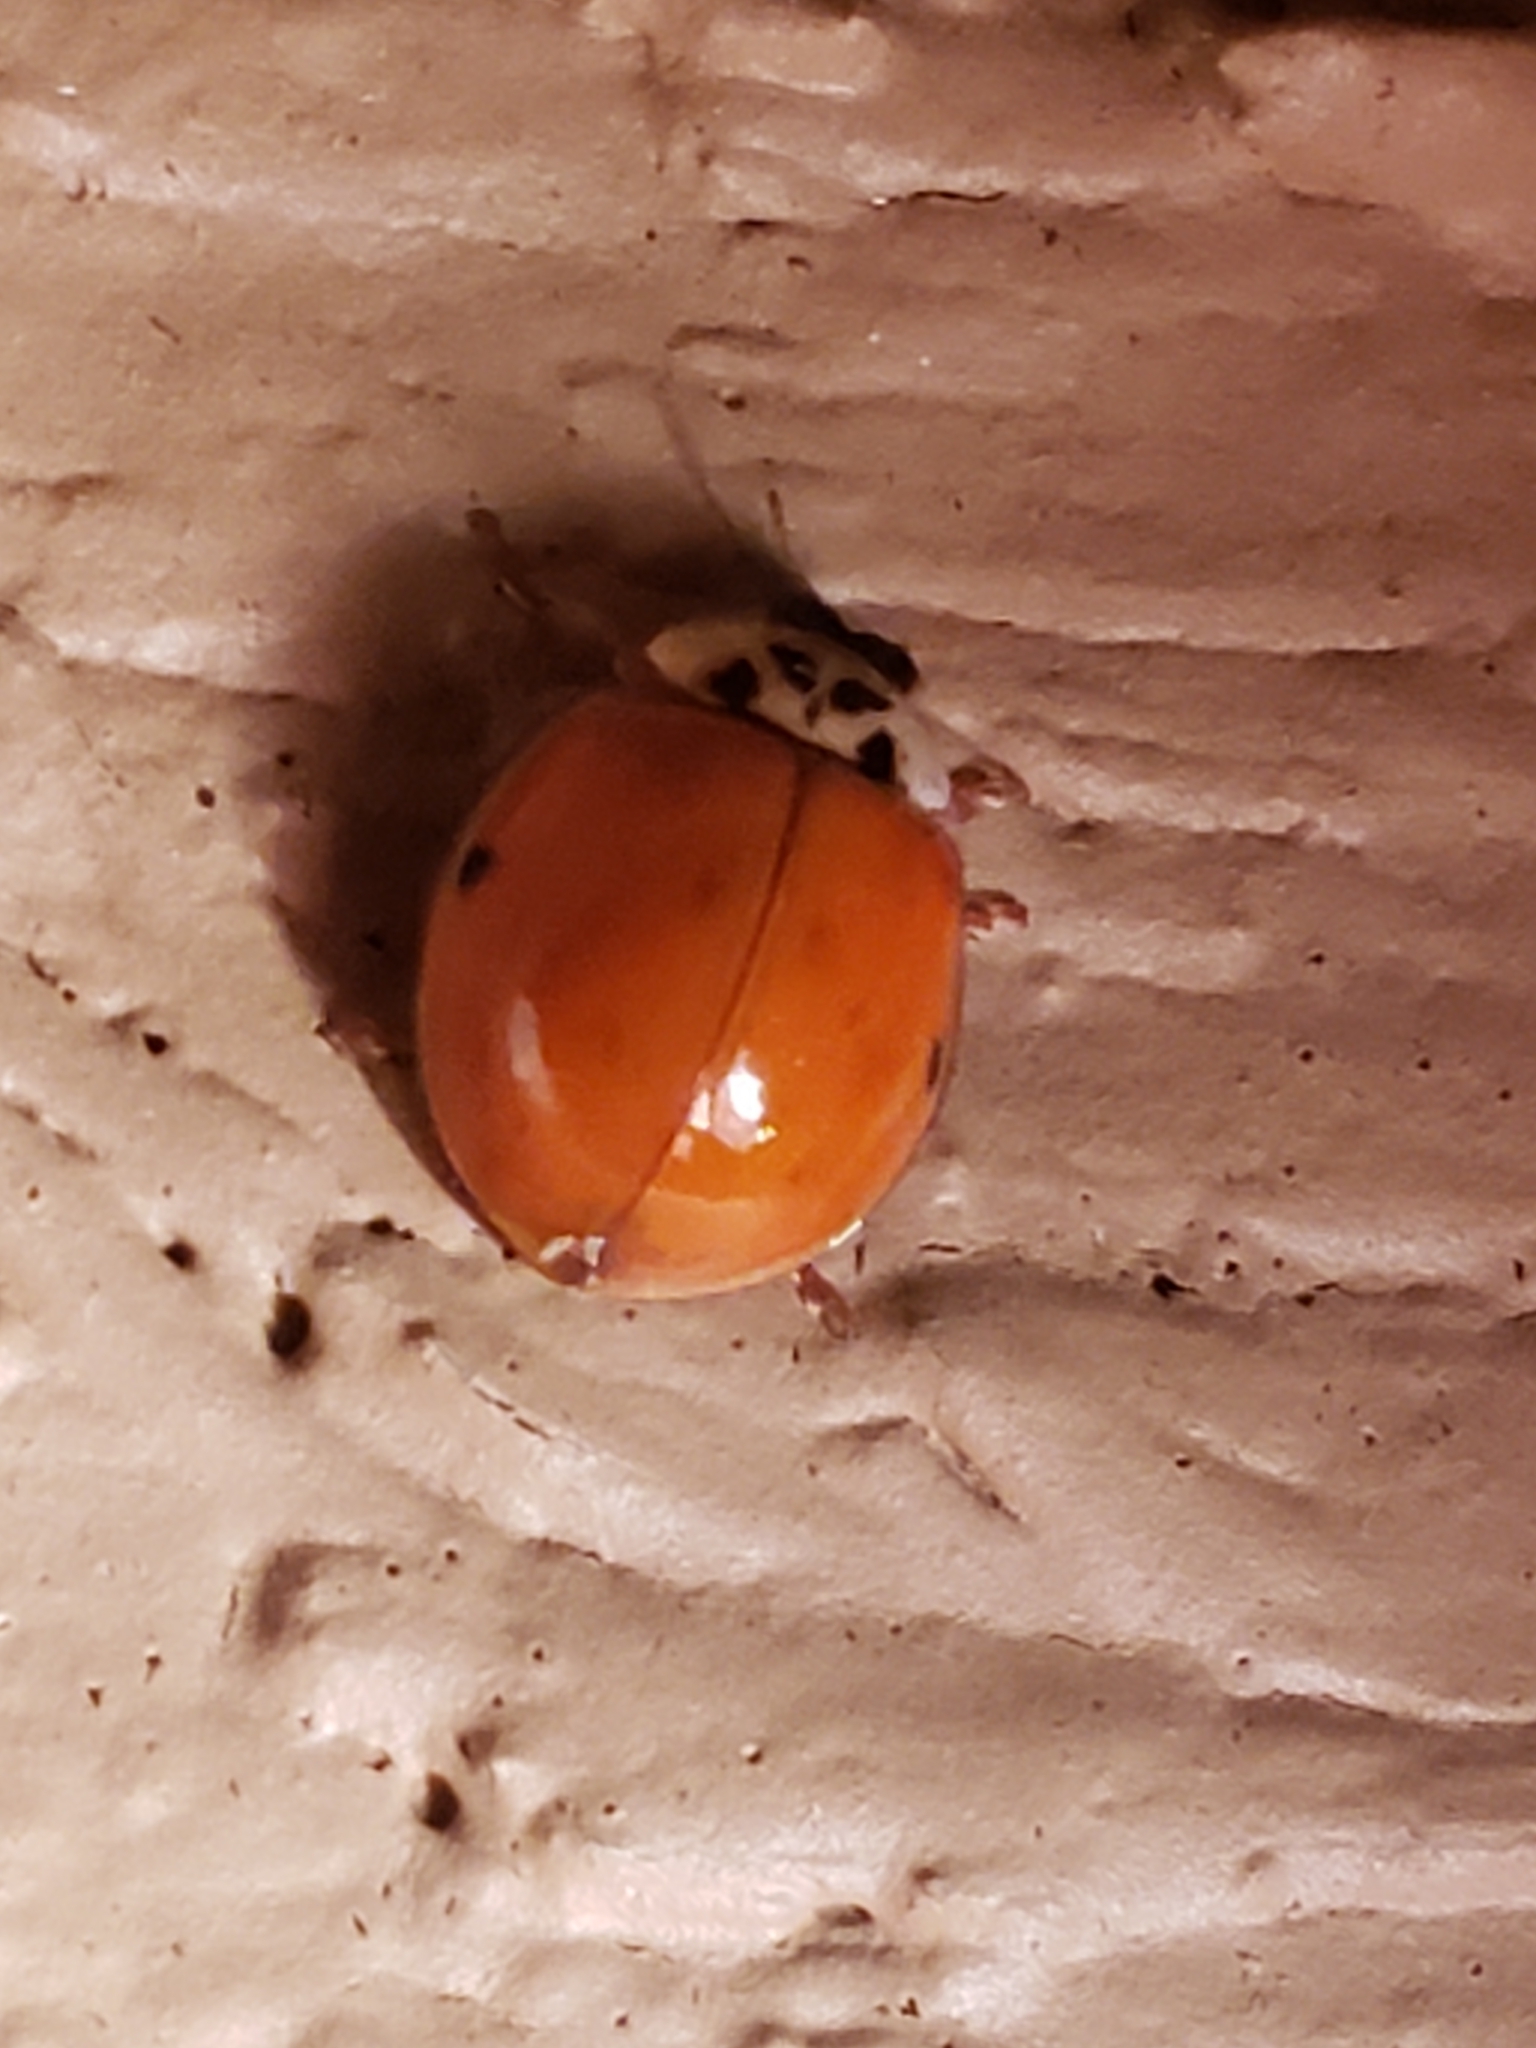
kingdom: Animalia
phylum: Arthropoda
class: Insecta
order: Coleoptera
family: Coccinellidae
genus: Harmonia
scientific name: Harmonia axyridis
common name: Harlequin ladybird
